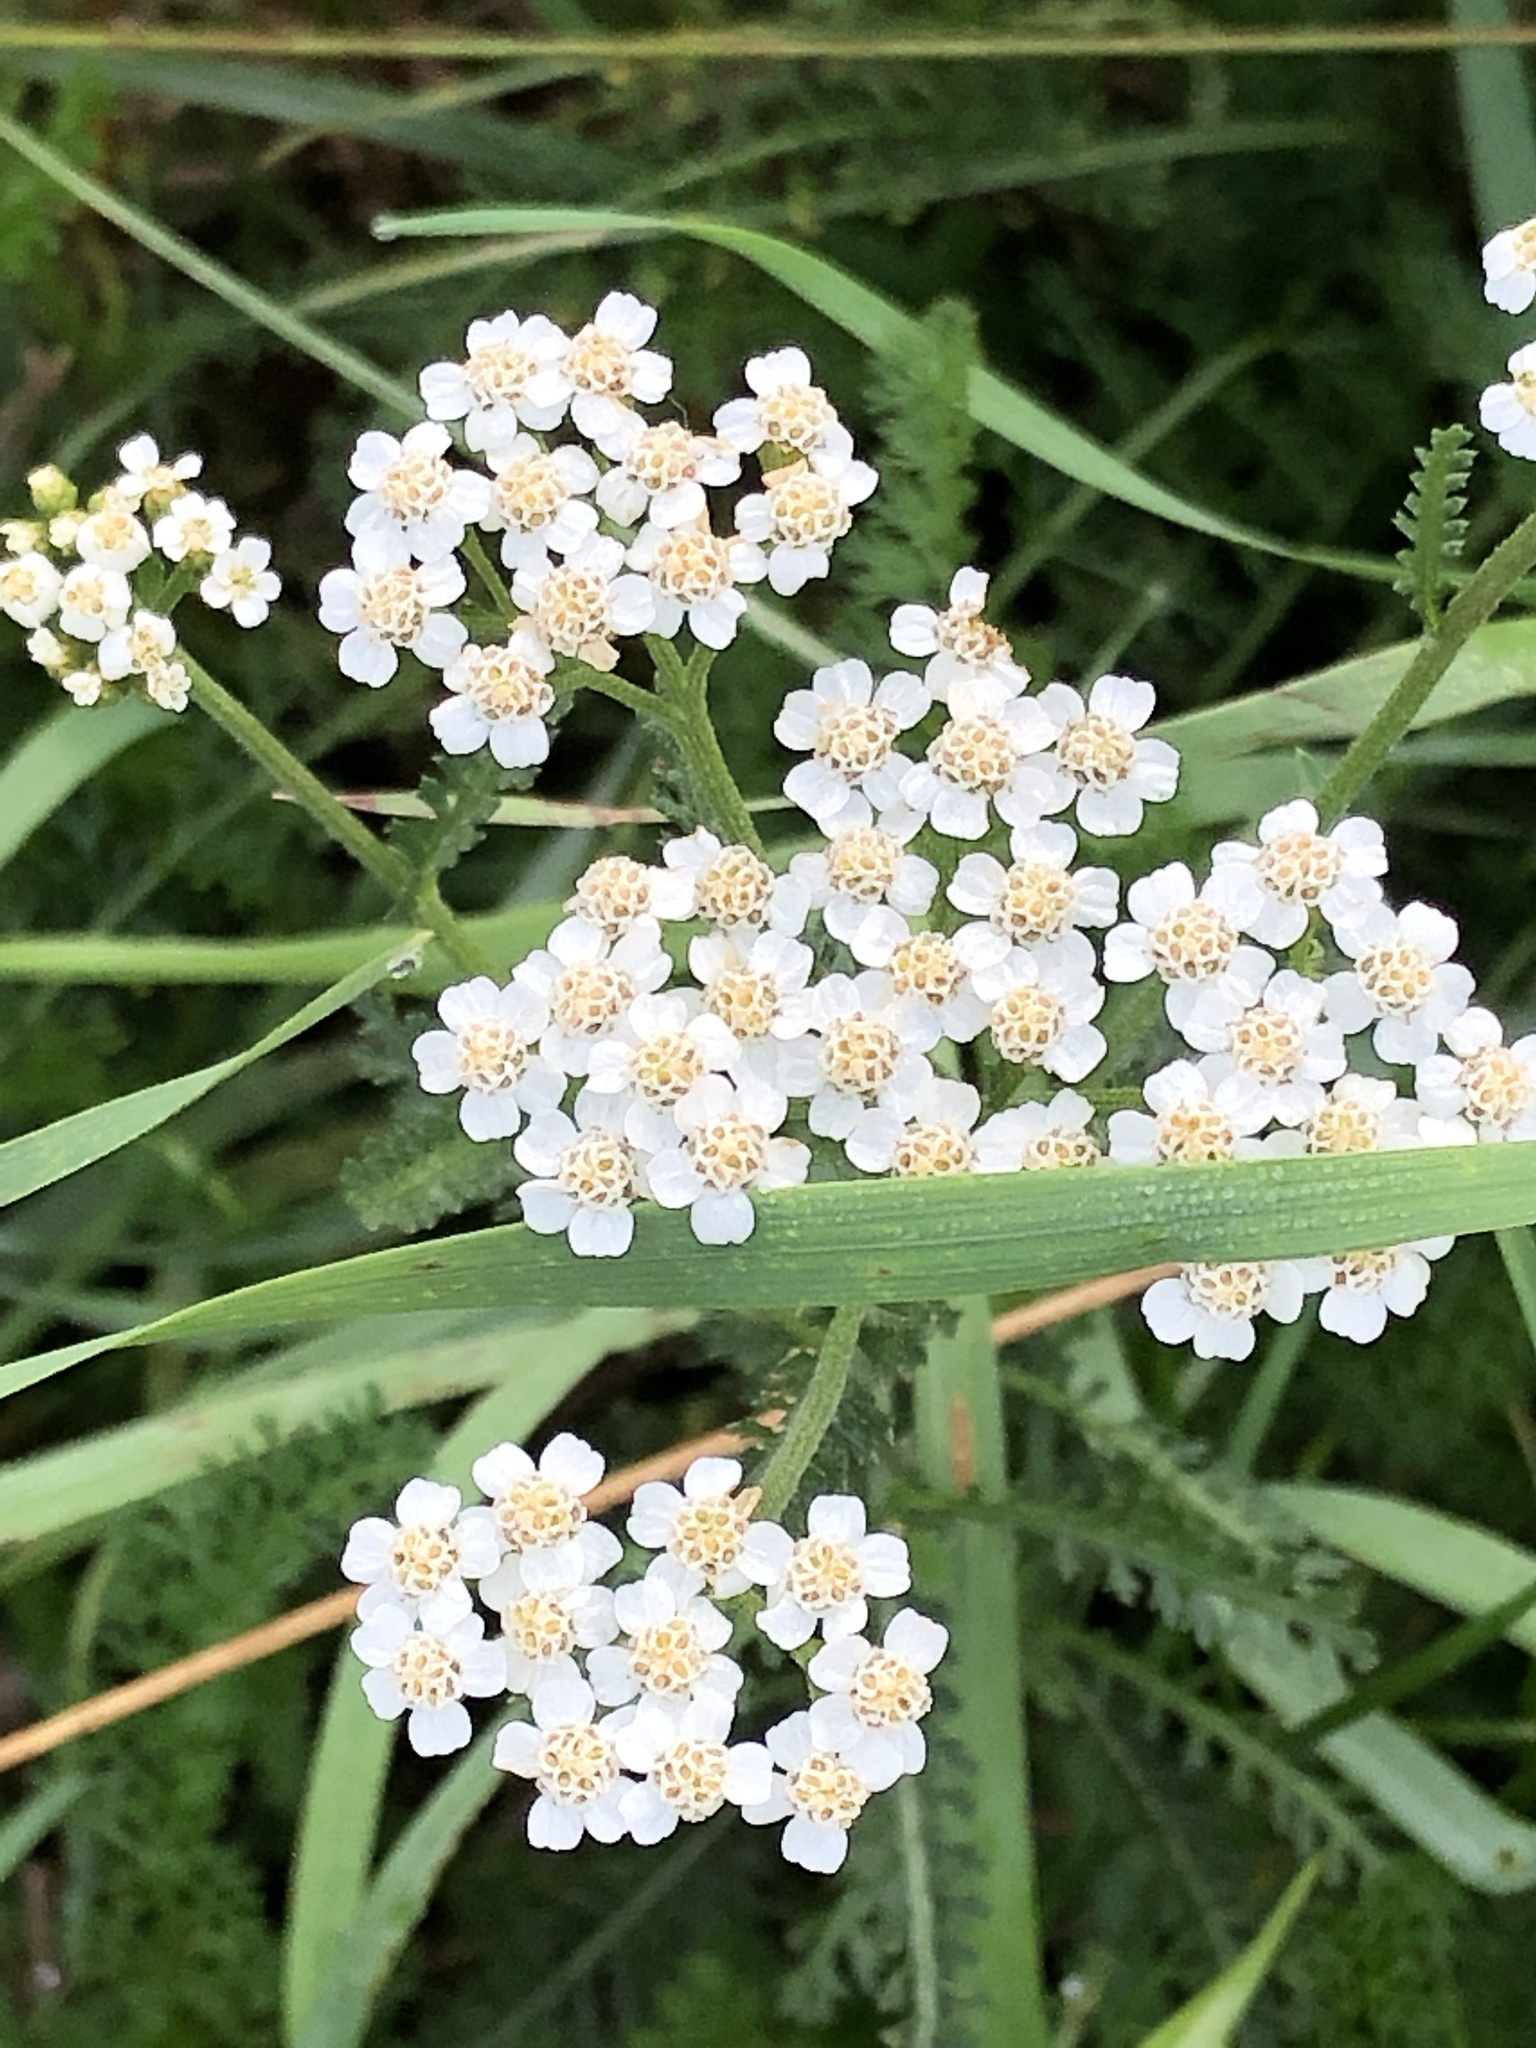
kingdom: Plantae
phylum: Tracheophyta
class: Magnoliopsida
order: Asterales
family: Asteraceae
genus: Achillea
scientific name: Achillea millefolium
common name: Yarrow
